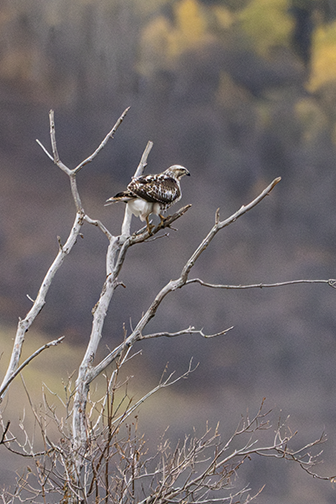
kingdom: Animalia
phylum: Chordata
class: Aves
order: Accipitriformes
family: Accipitridae
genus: Buteo
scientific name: Buteo jamaicensis
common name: Red-tailed hawk
